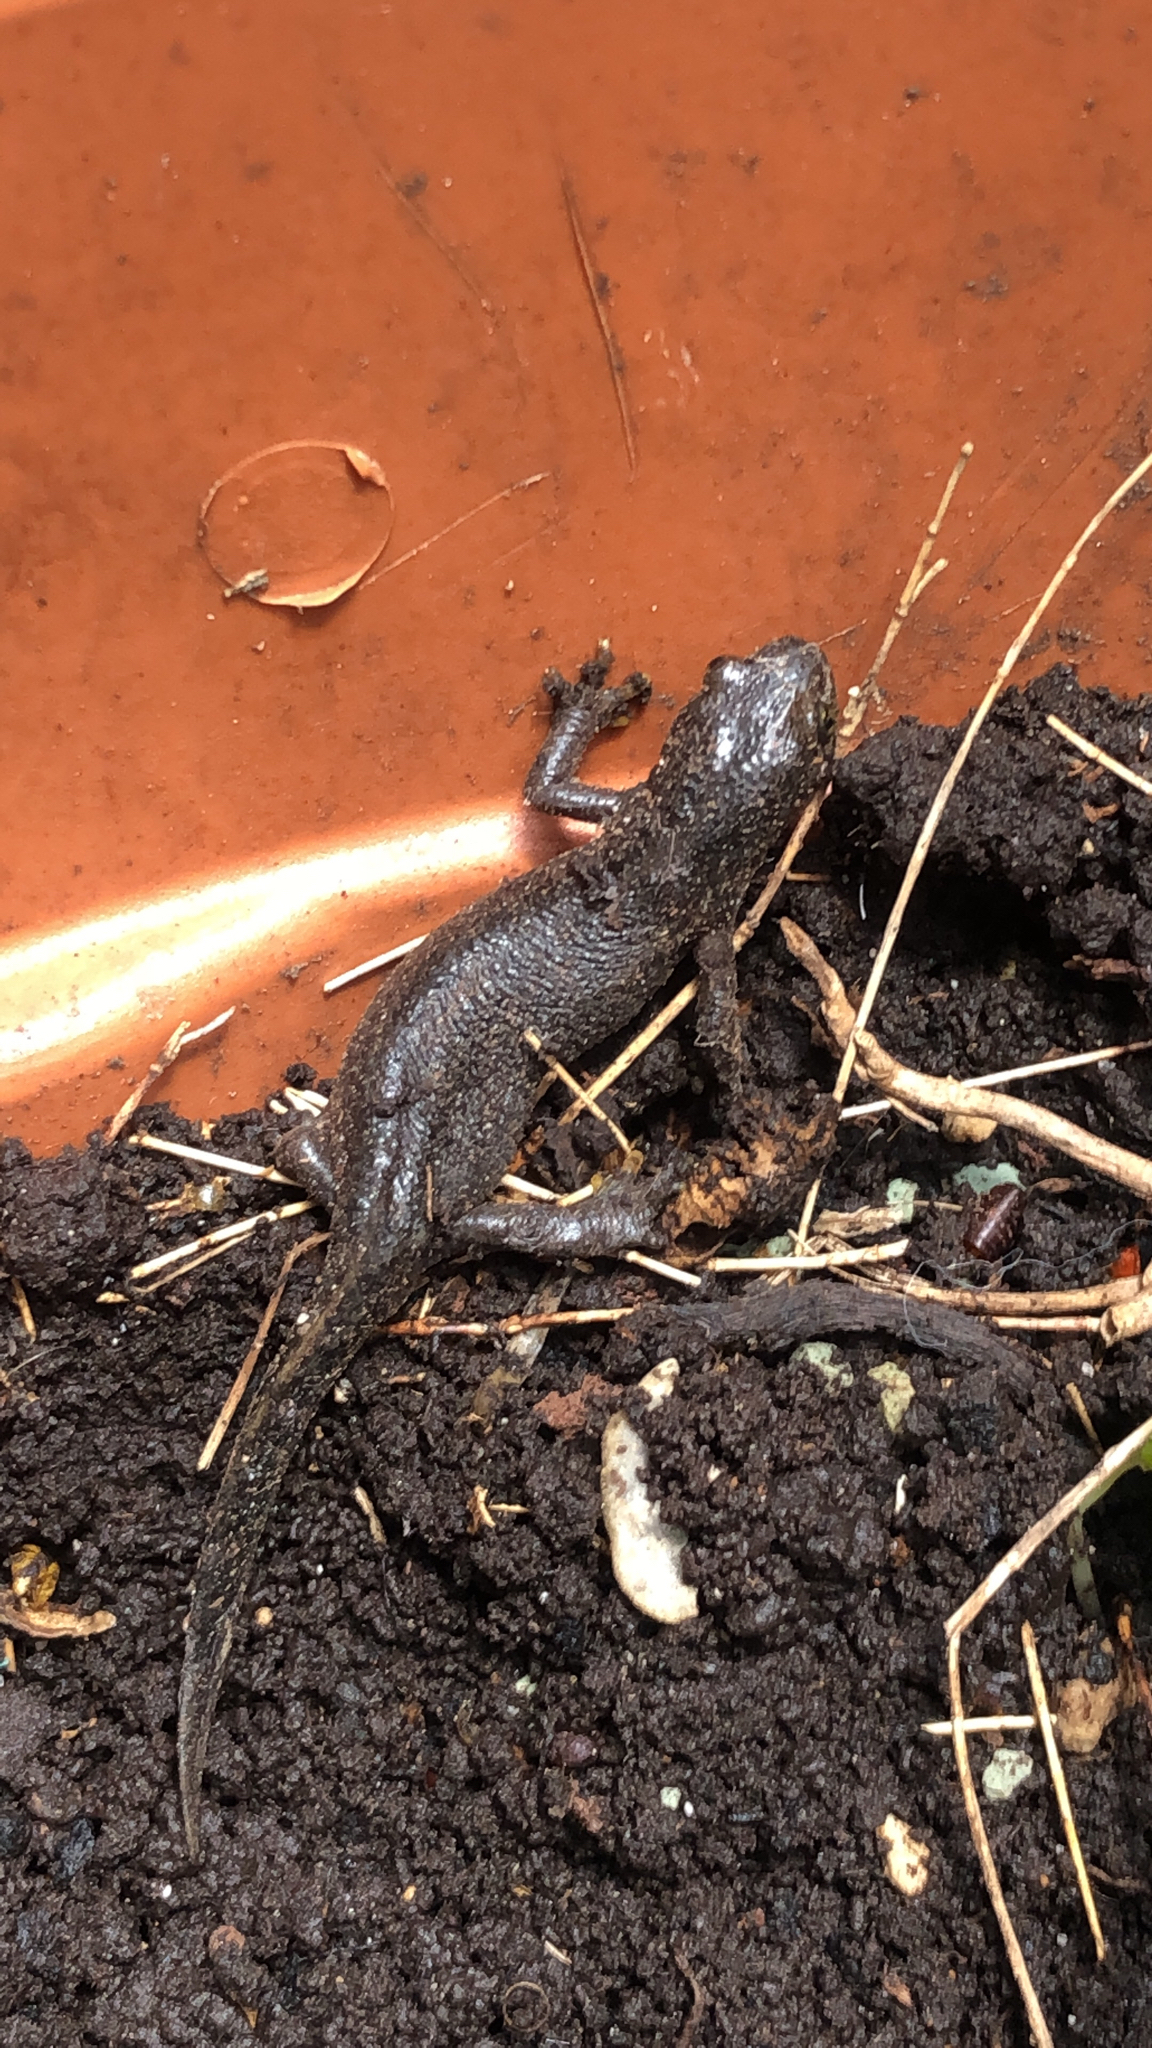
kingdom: Animalia
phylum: Chordata
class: Amphibia
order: Caudata
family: Salamandridae
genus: Ichthyosaura
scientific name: Ichthyosaura alpestris
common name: Alpine newt
